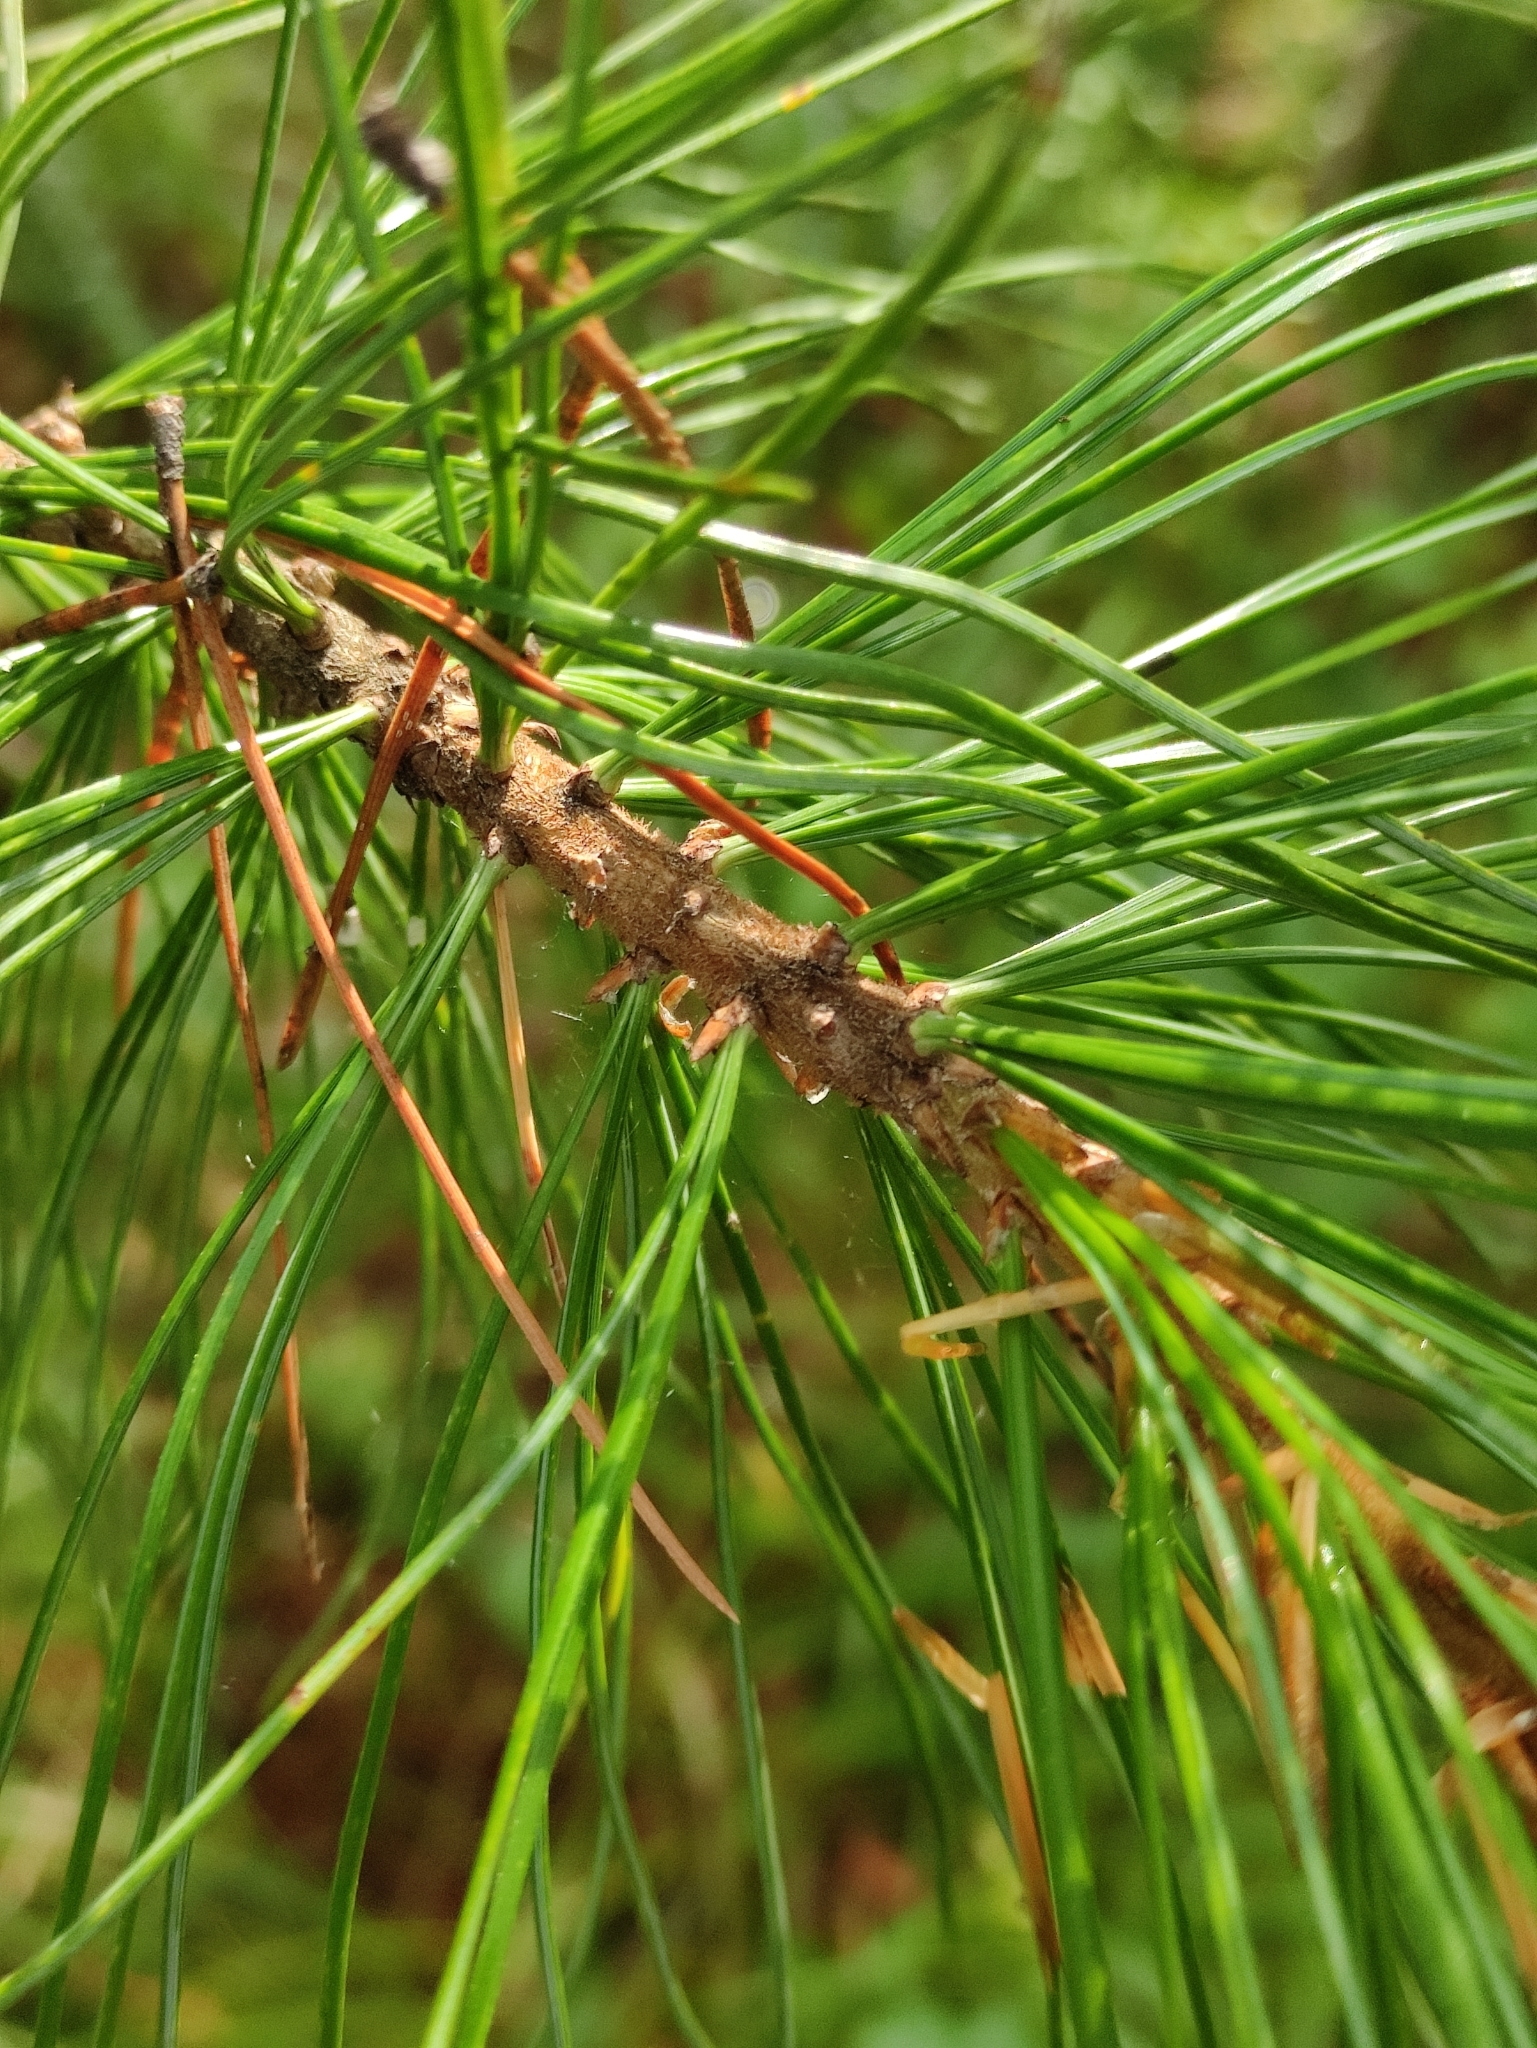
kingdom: Plantae
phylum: Tracheophyta
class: Pinopsida
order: Pinales
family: Pinaceae
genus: Pinus
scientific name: Pinus sibirica
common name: Siberian pine
